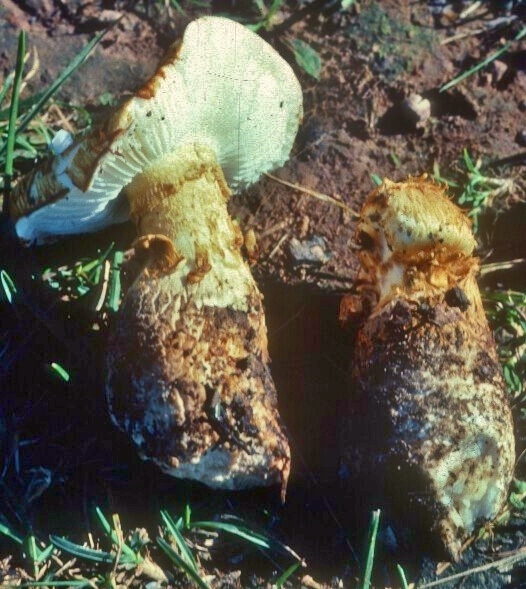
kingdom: Fungi
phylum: Basidiomycota
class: Agaricomycetes
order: Agaricales
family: Tricholomataceae
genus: Squamanita
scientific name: Squamanita umbonata
